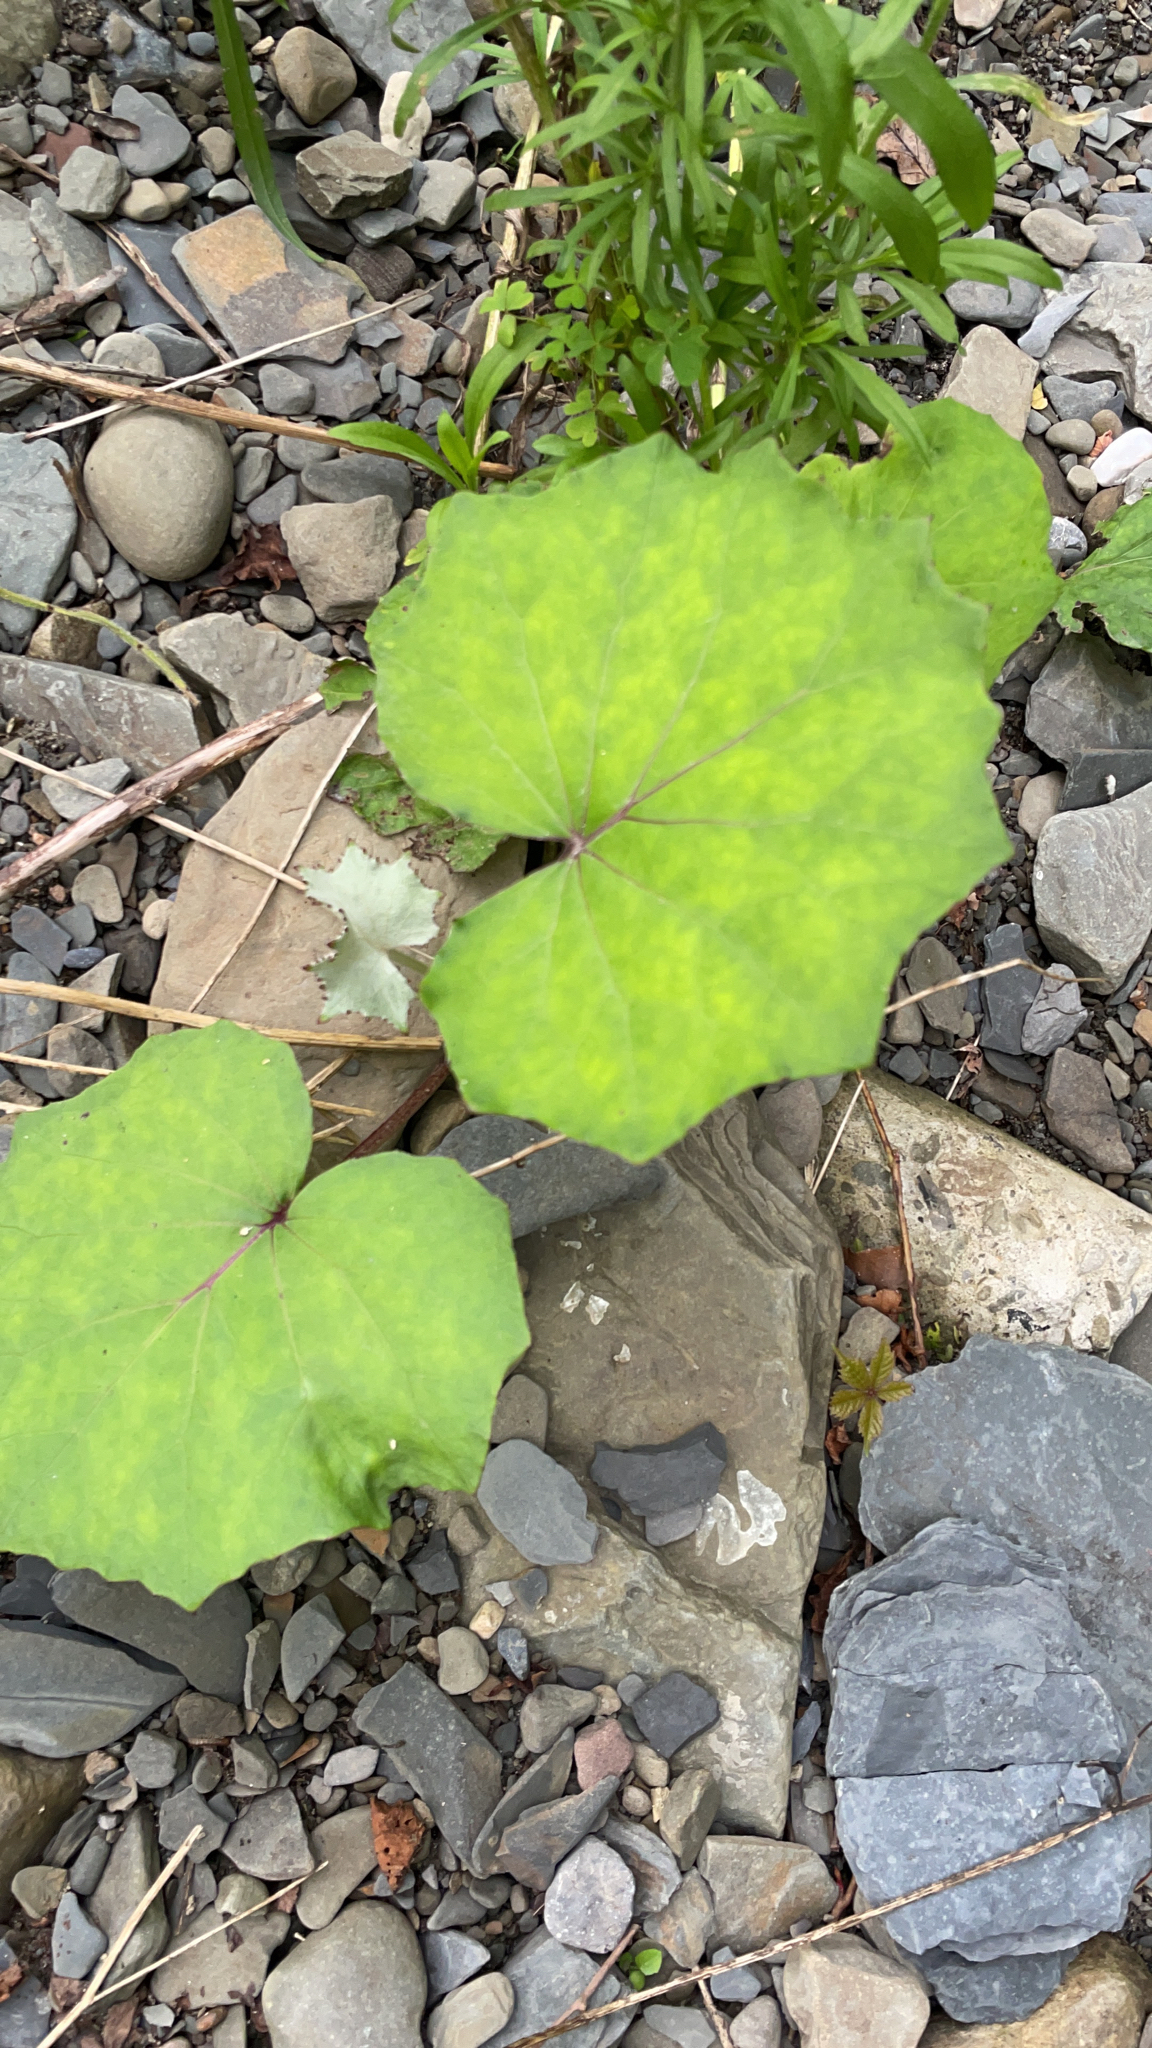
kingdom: Plantae
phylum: Tracheophyta
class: Magnoliopsida
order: Asterales
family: Asteraceae
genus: Tussilago
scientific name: Tussilago farfara
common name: Coltsfoot
